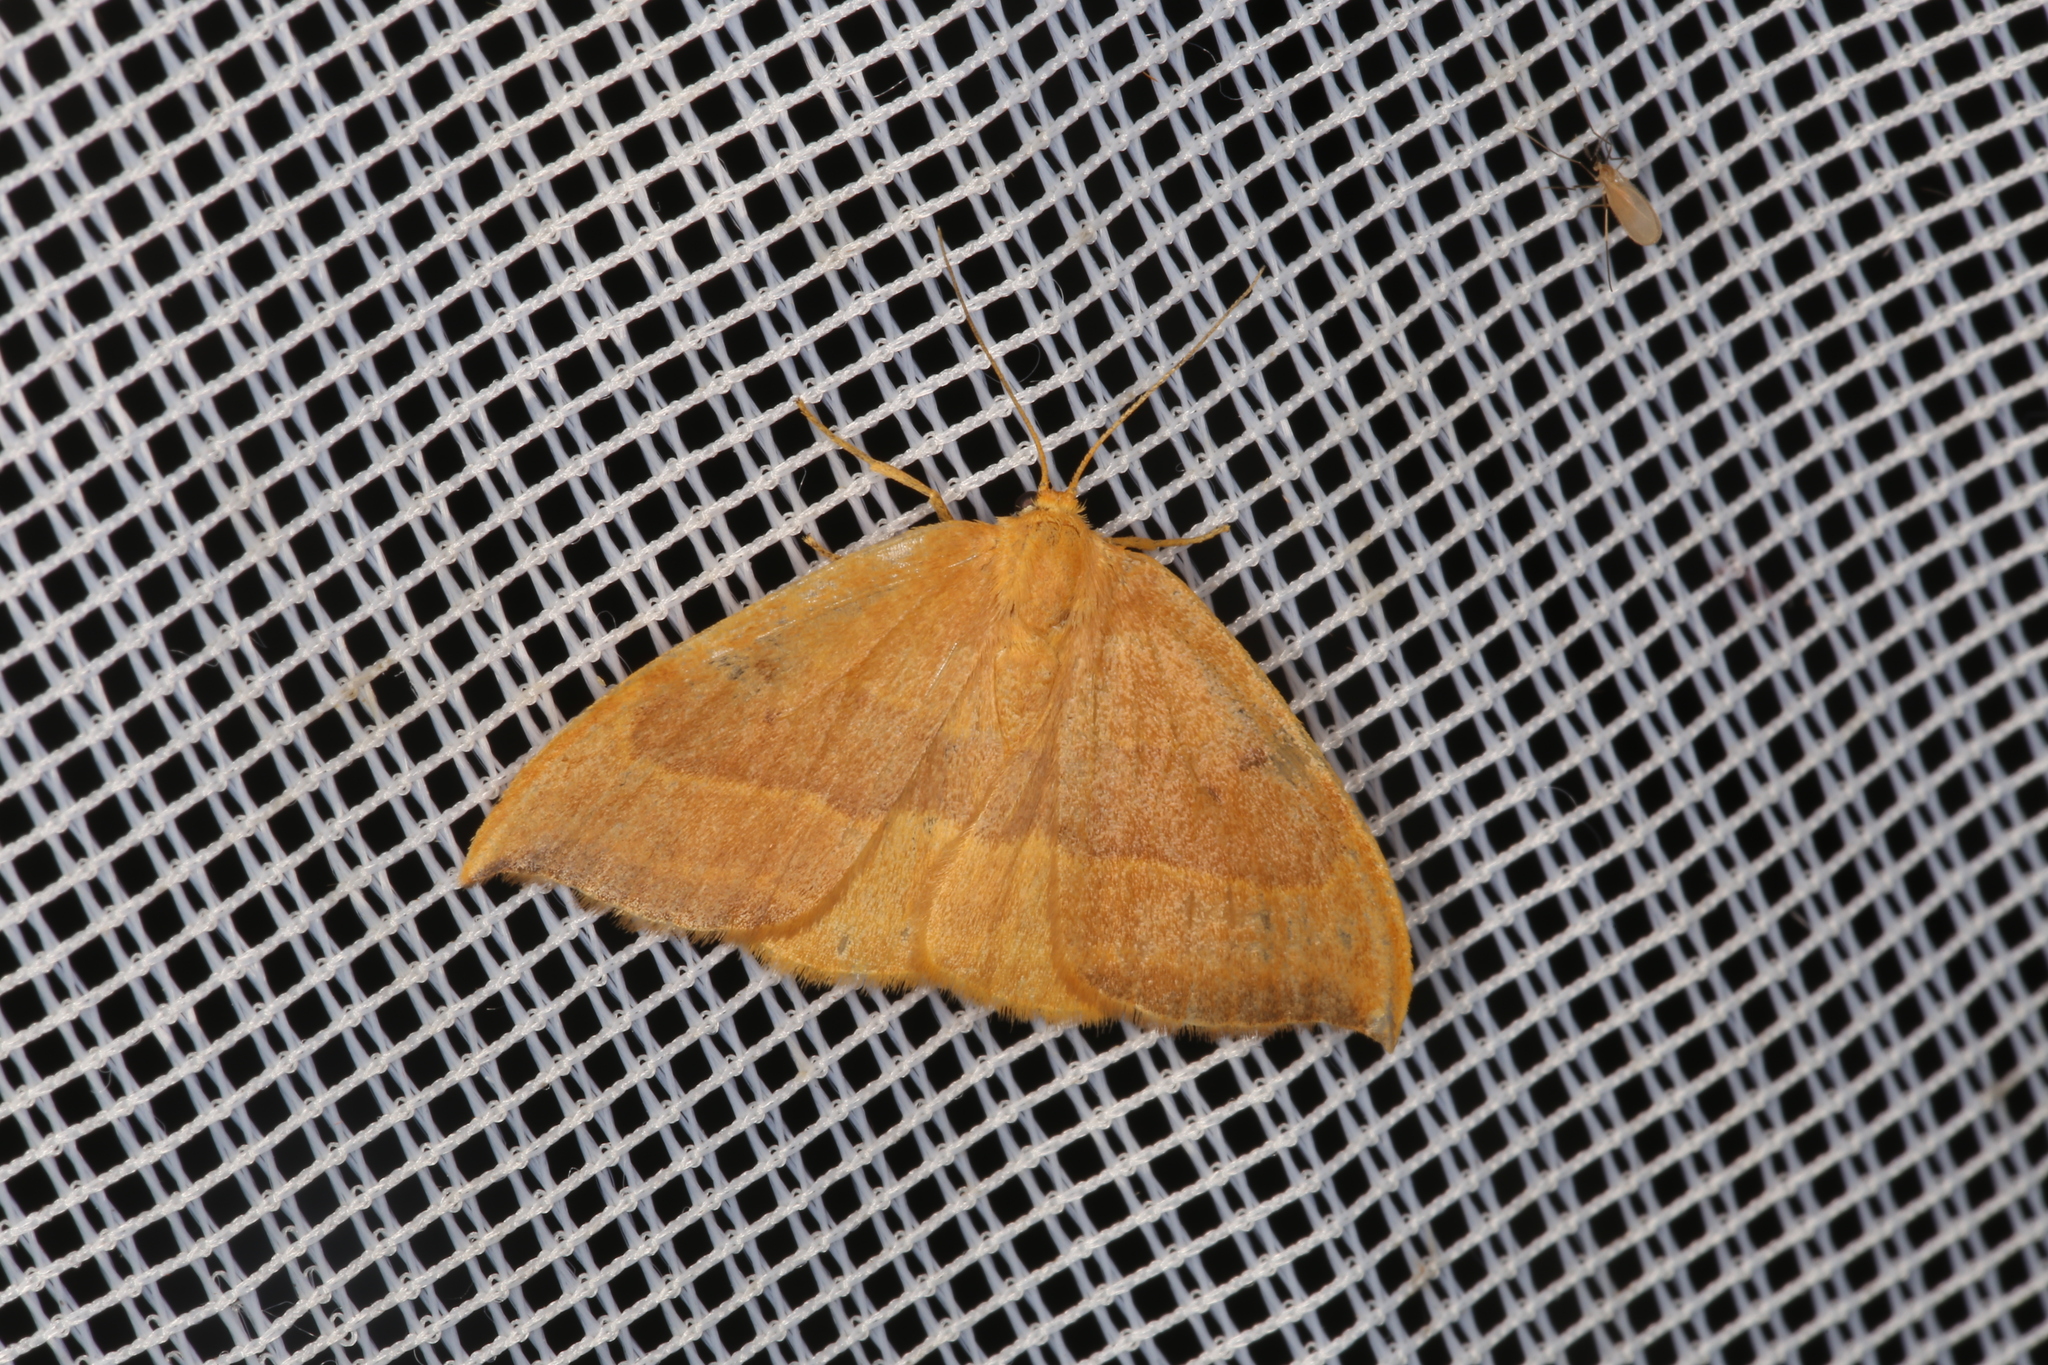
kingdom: Animalia
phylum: Arthropoda
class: Insecta
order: Lepidoptera
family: Drepanidae
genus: Watsonalla
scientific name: Watsonalla cultraria
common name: Barred hook-tip
